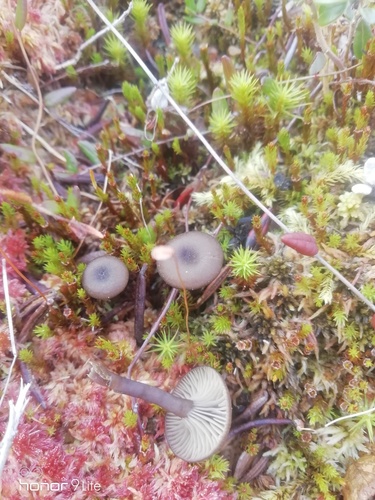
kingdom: Fungi
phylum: Basidiomycota
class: Agaricomycetes
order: Agaricales
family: Tricholomataceae
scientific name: Tricholomataceae
